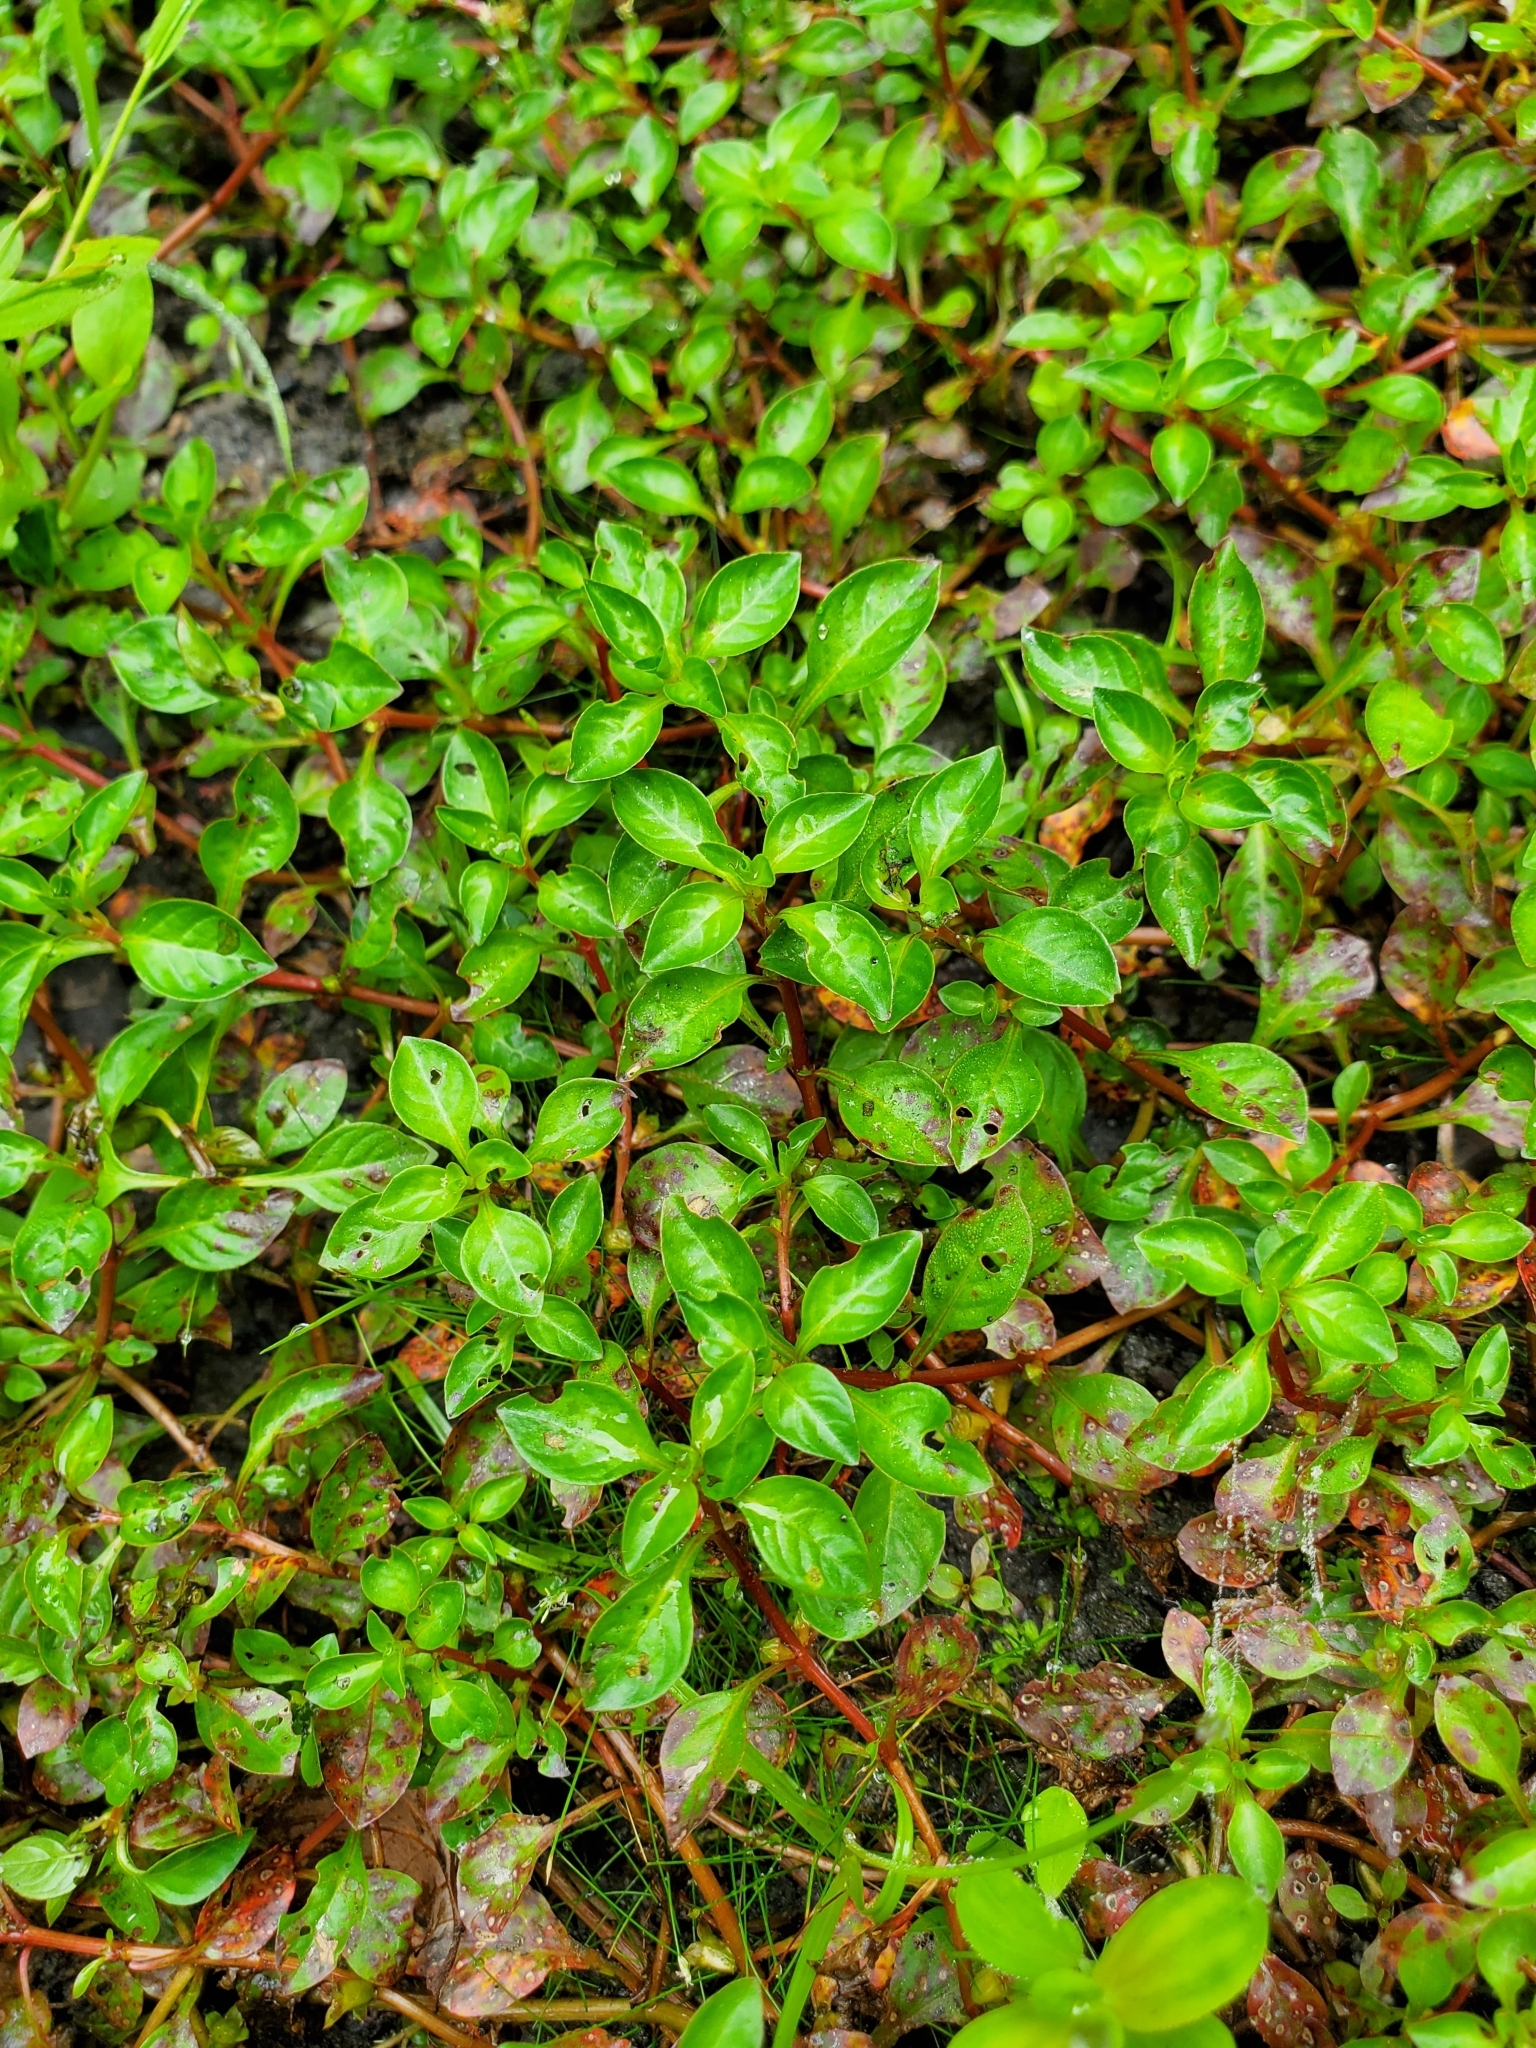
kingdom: Plantae
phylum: Tracheophyta
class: Magnoliopsida
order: Myrtales
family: Onagraceae
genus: Ludwigia
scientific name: Ludwigia palustris
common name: Hampshire-purslane
